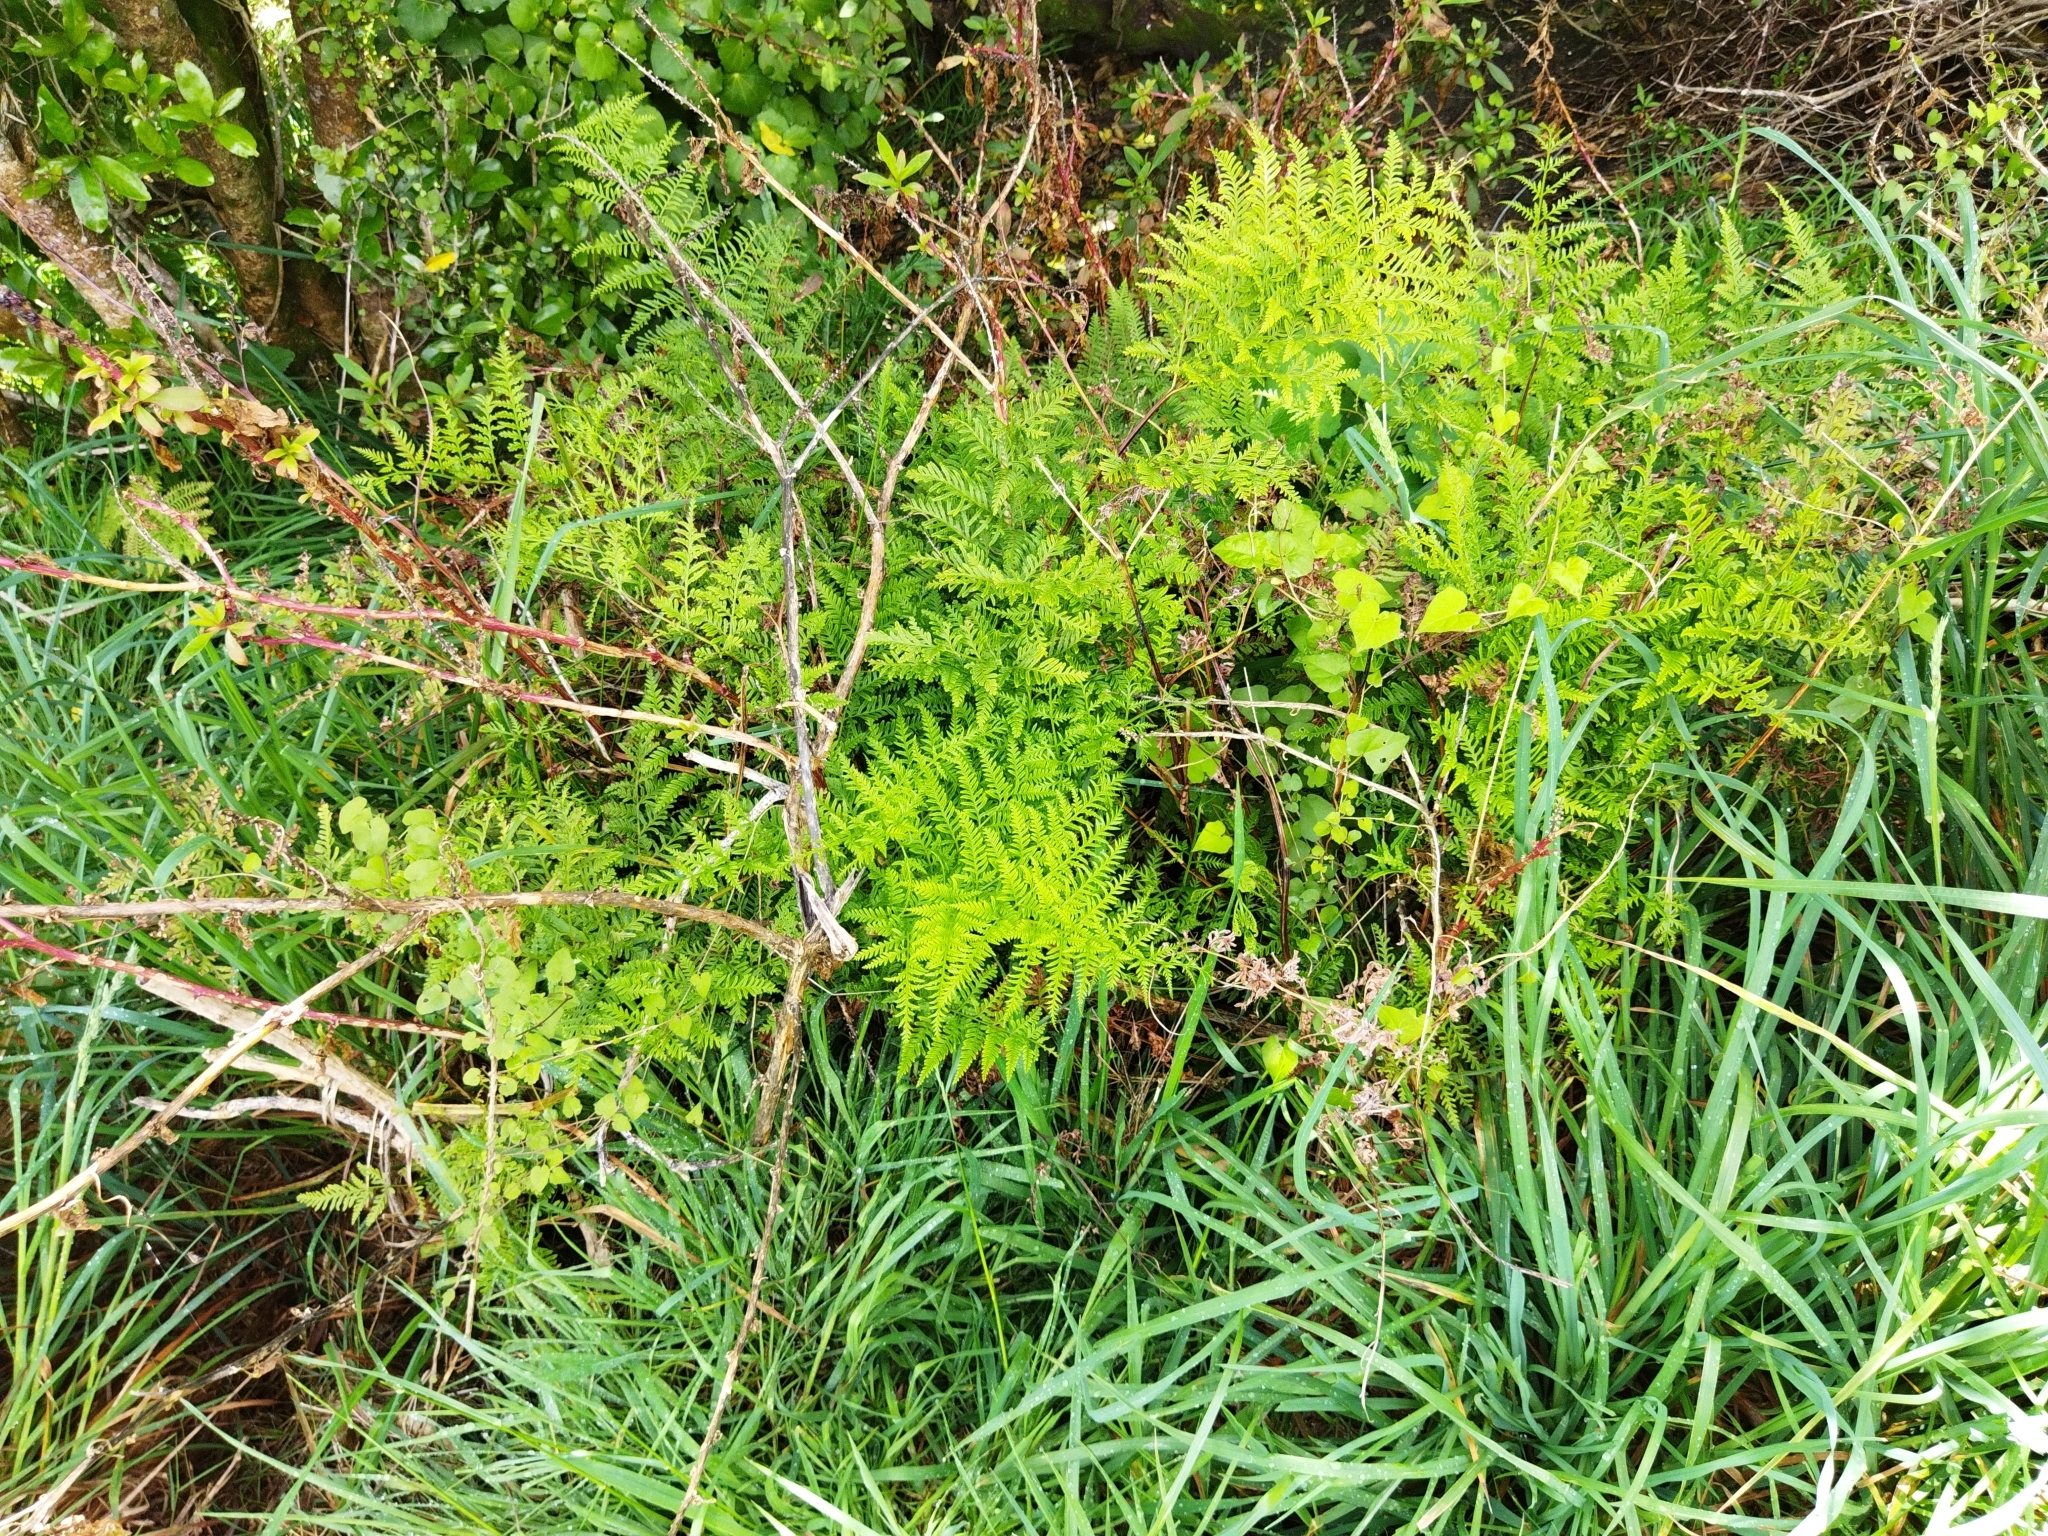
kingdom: Plantae
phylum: Tracheophyta
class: Polypodiopsida
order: Polypodiales
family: Pteridaceae
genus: Pteris
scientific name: Pteris tremula
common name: Australian brake
